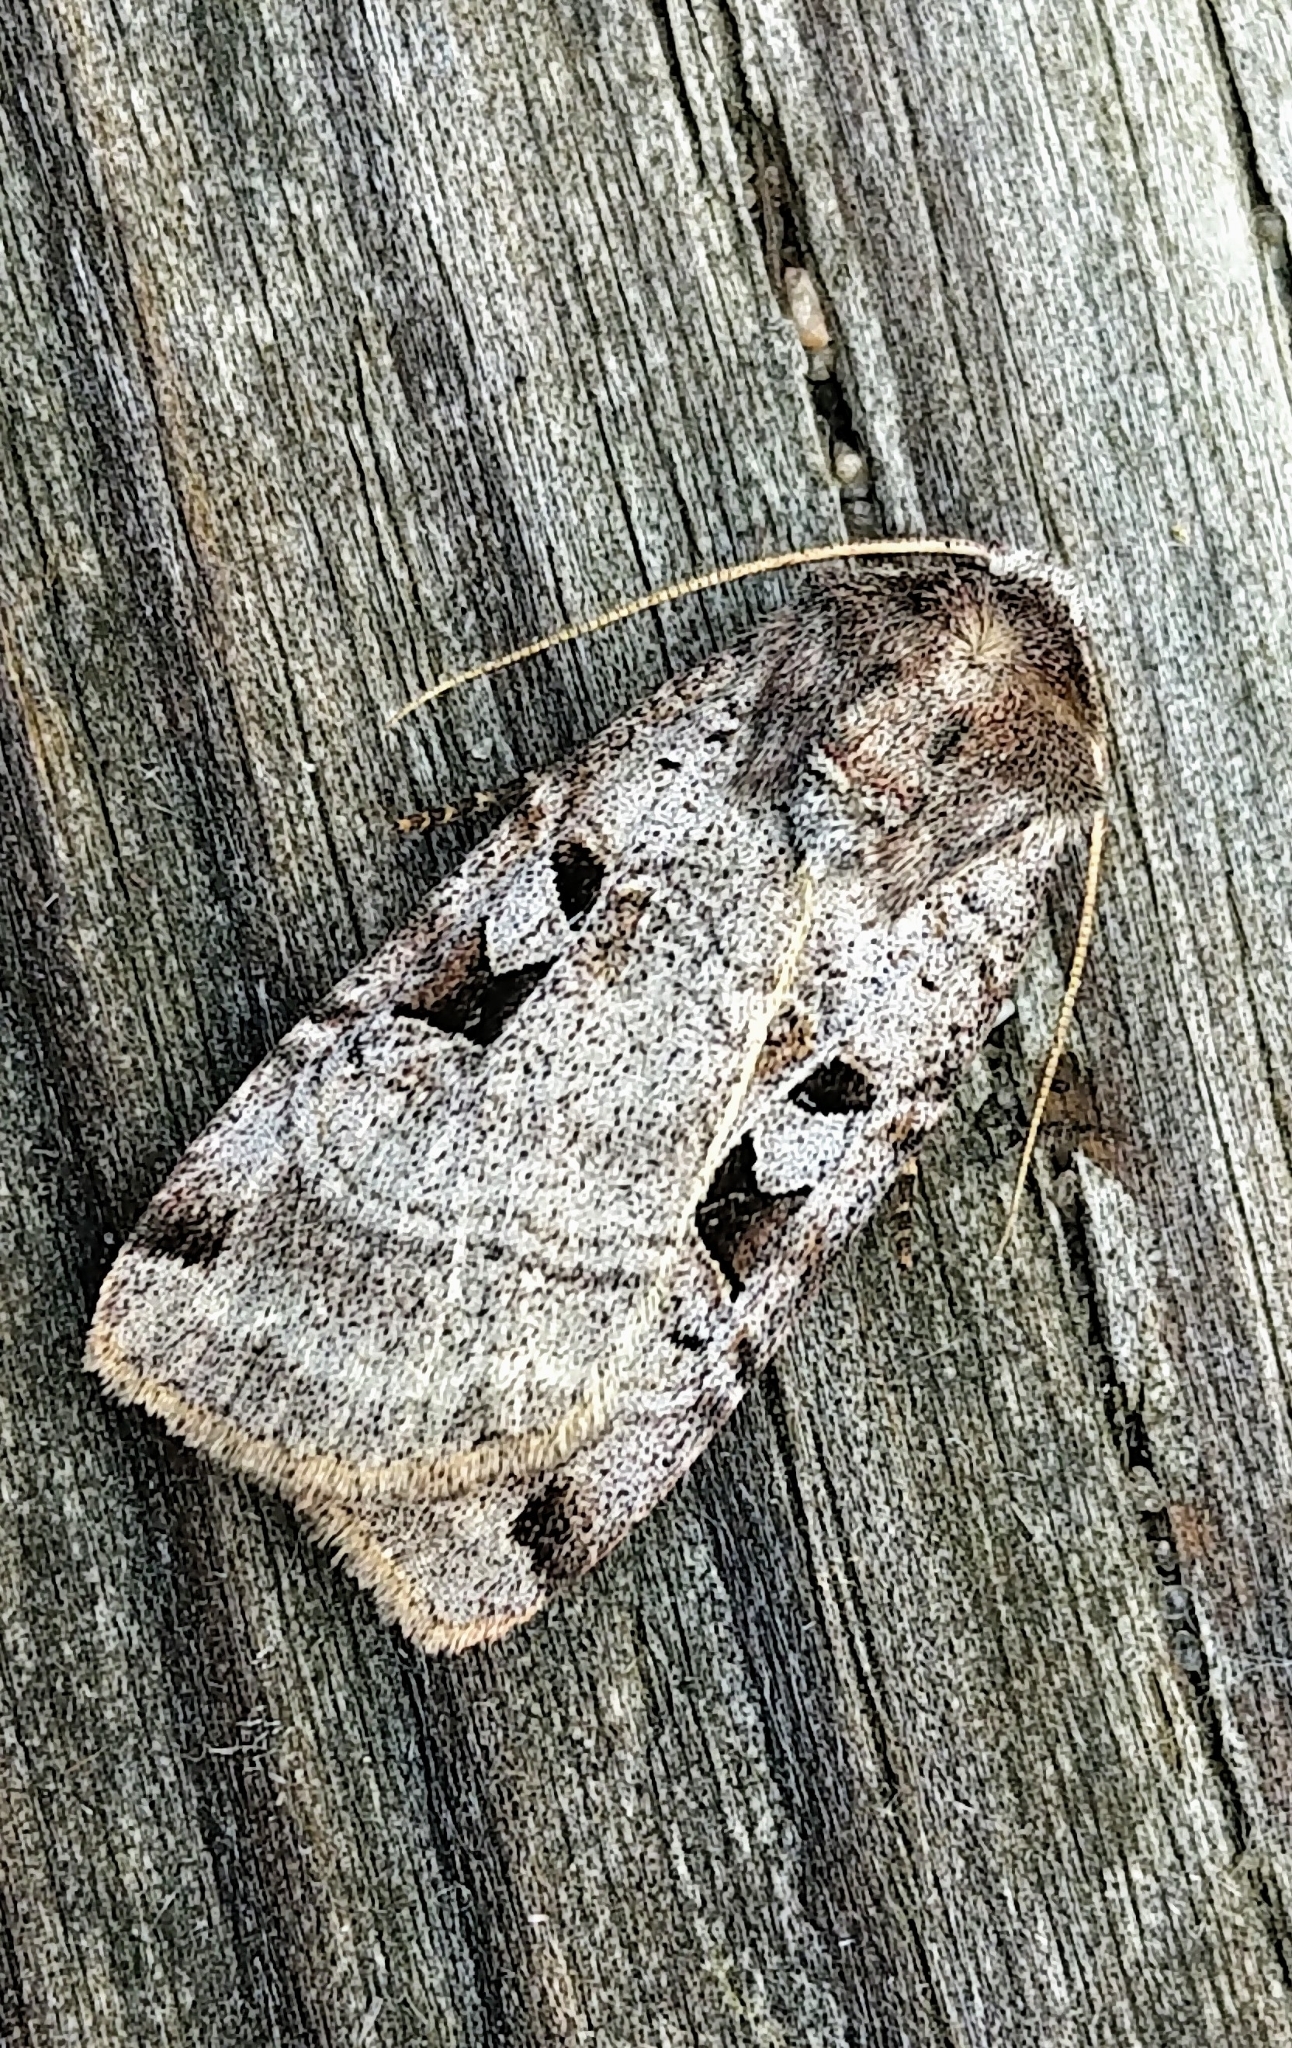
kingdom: Animalia
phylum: Arthropoda
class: Insecta
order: Lepidoptera
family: Noctuidae
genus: Xestia
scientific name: Xestia normaniana
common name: Norman's dart moth
